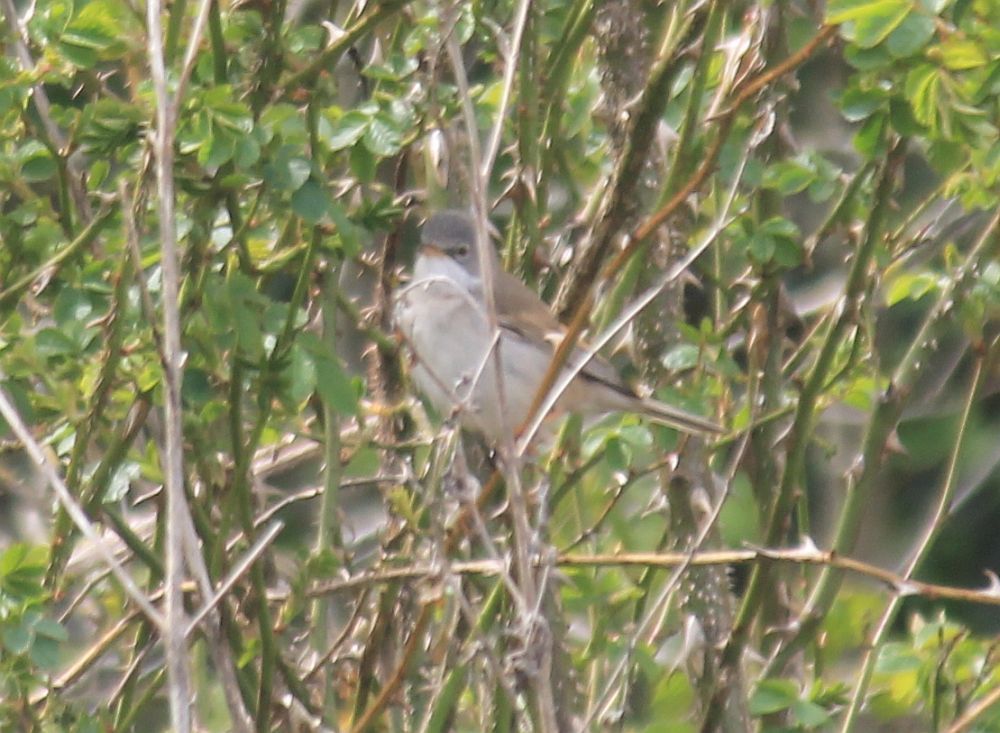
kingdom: Animalia
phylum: Chordata
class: Aves
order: Passeriformes
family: Sylviidae
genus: Sylvia
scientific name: Sylvia communis
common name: Common whitethroat
